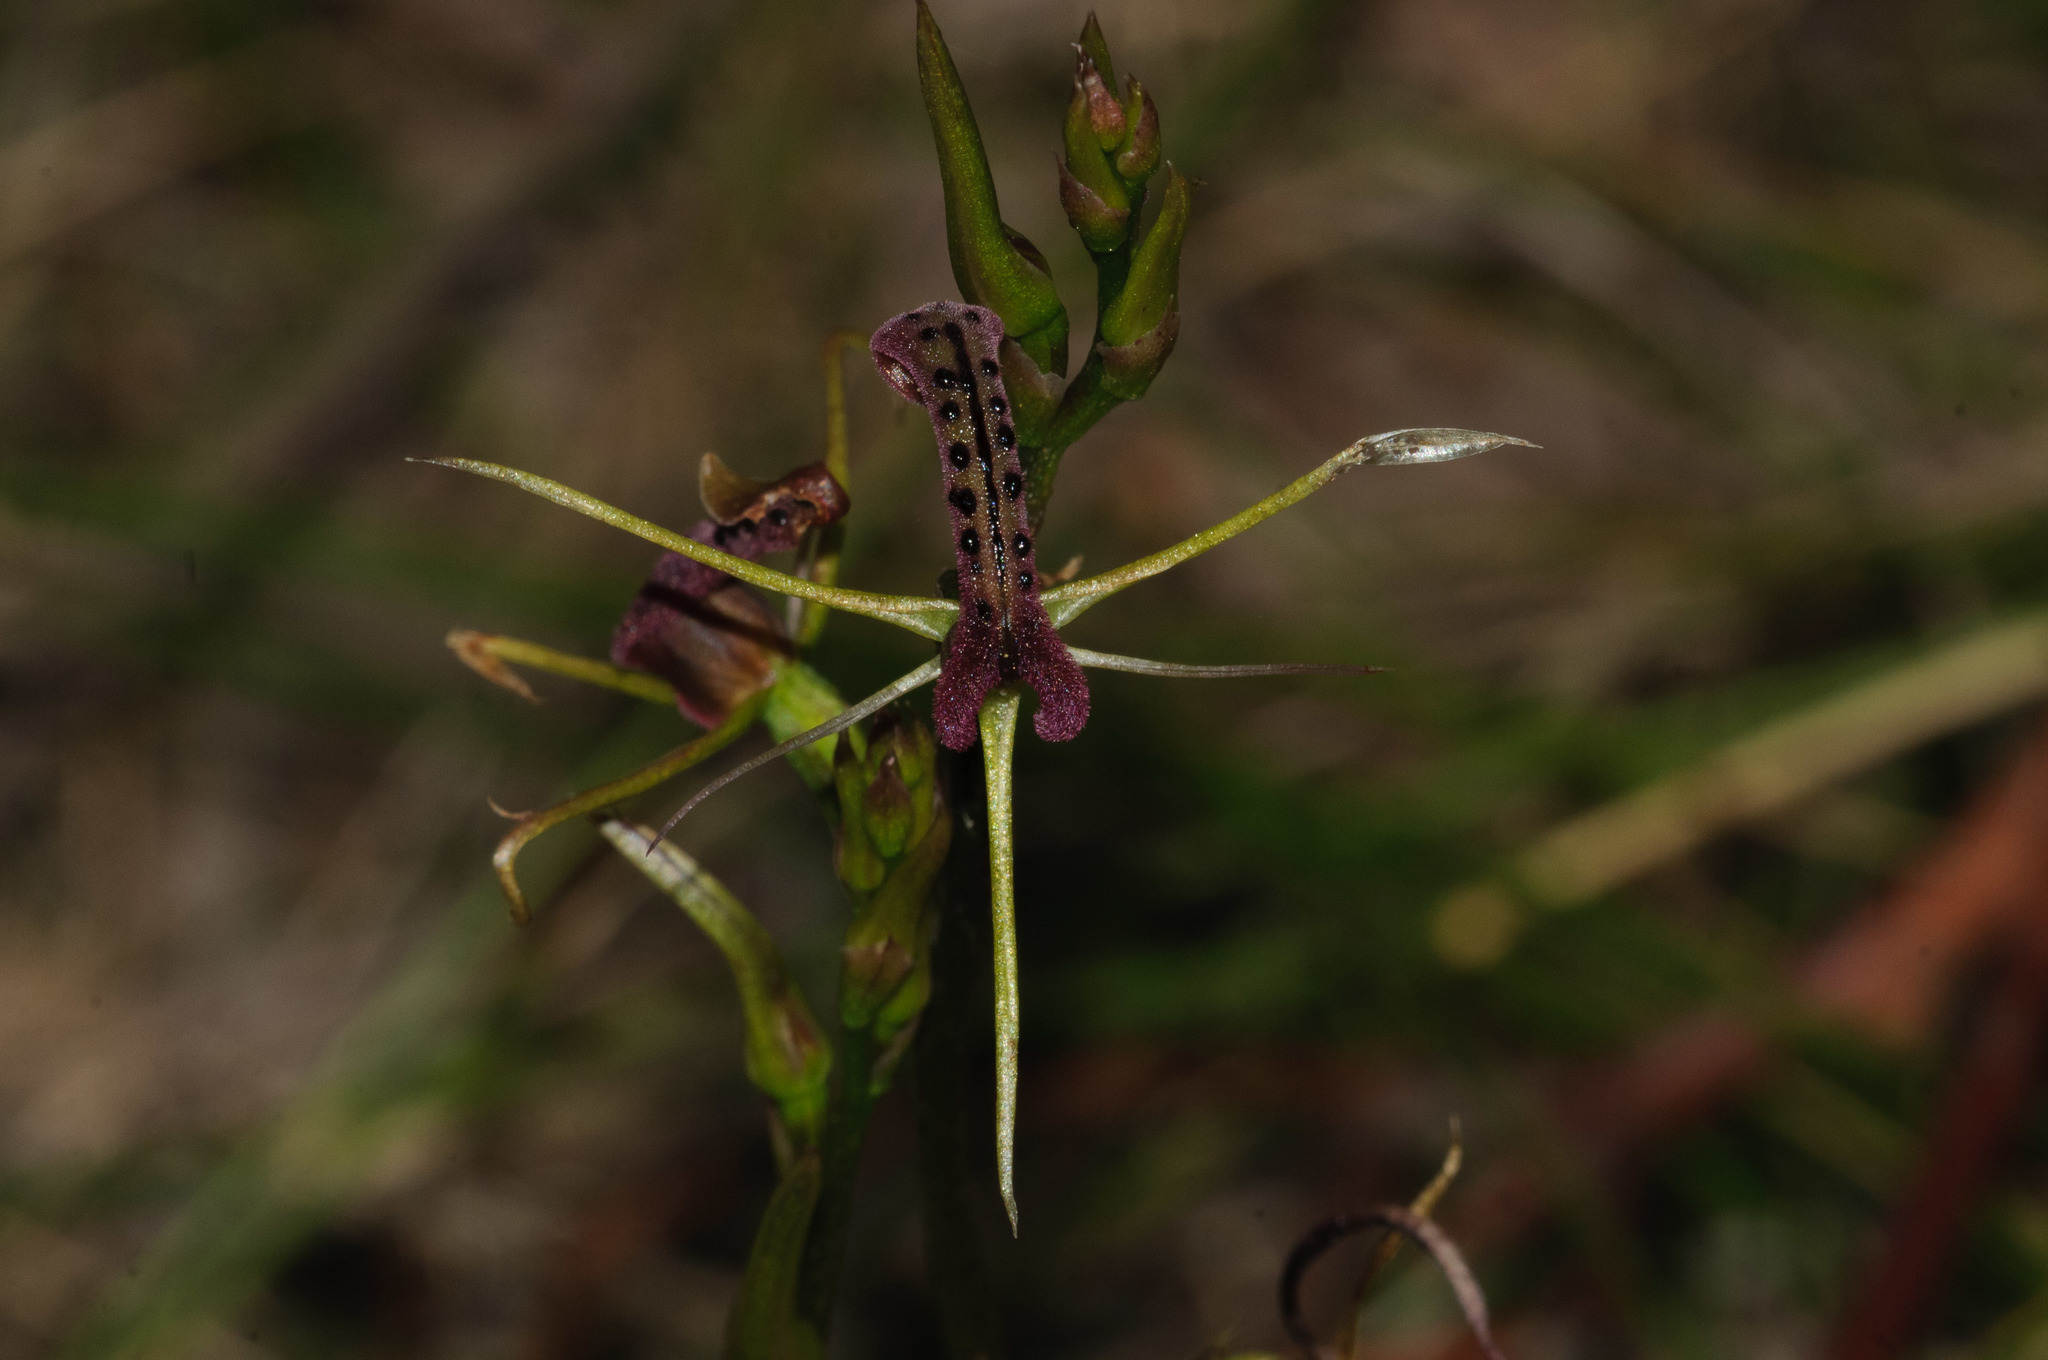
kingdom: Plantae
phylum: Tracheophyta
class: Liliopsida
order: Asparagales
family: Orchidaceae
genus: Cryptostylis
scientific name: Cryptostylis leptochila
